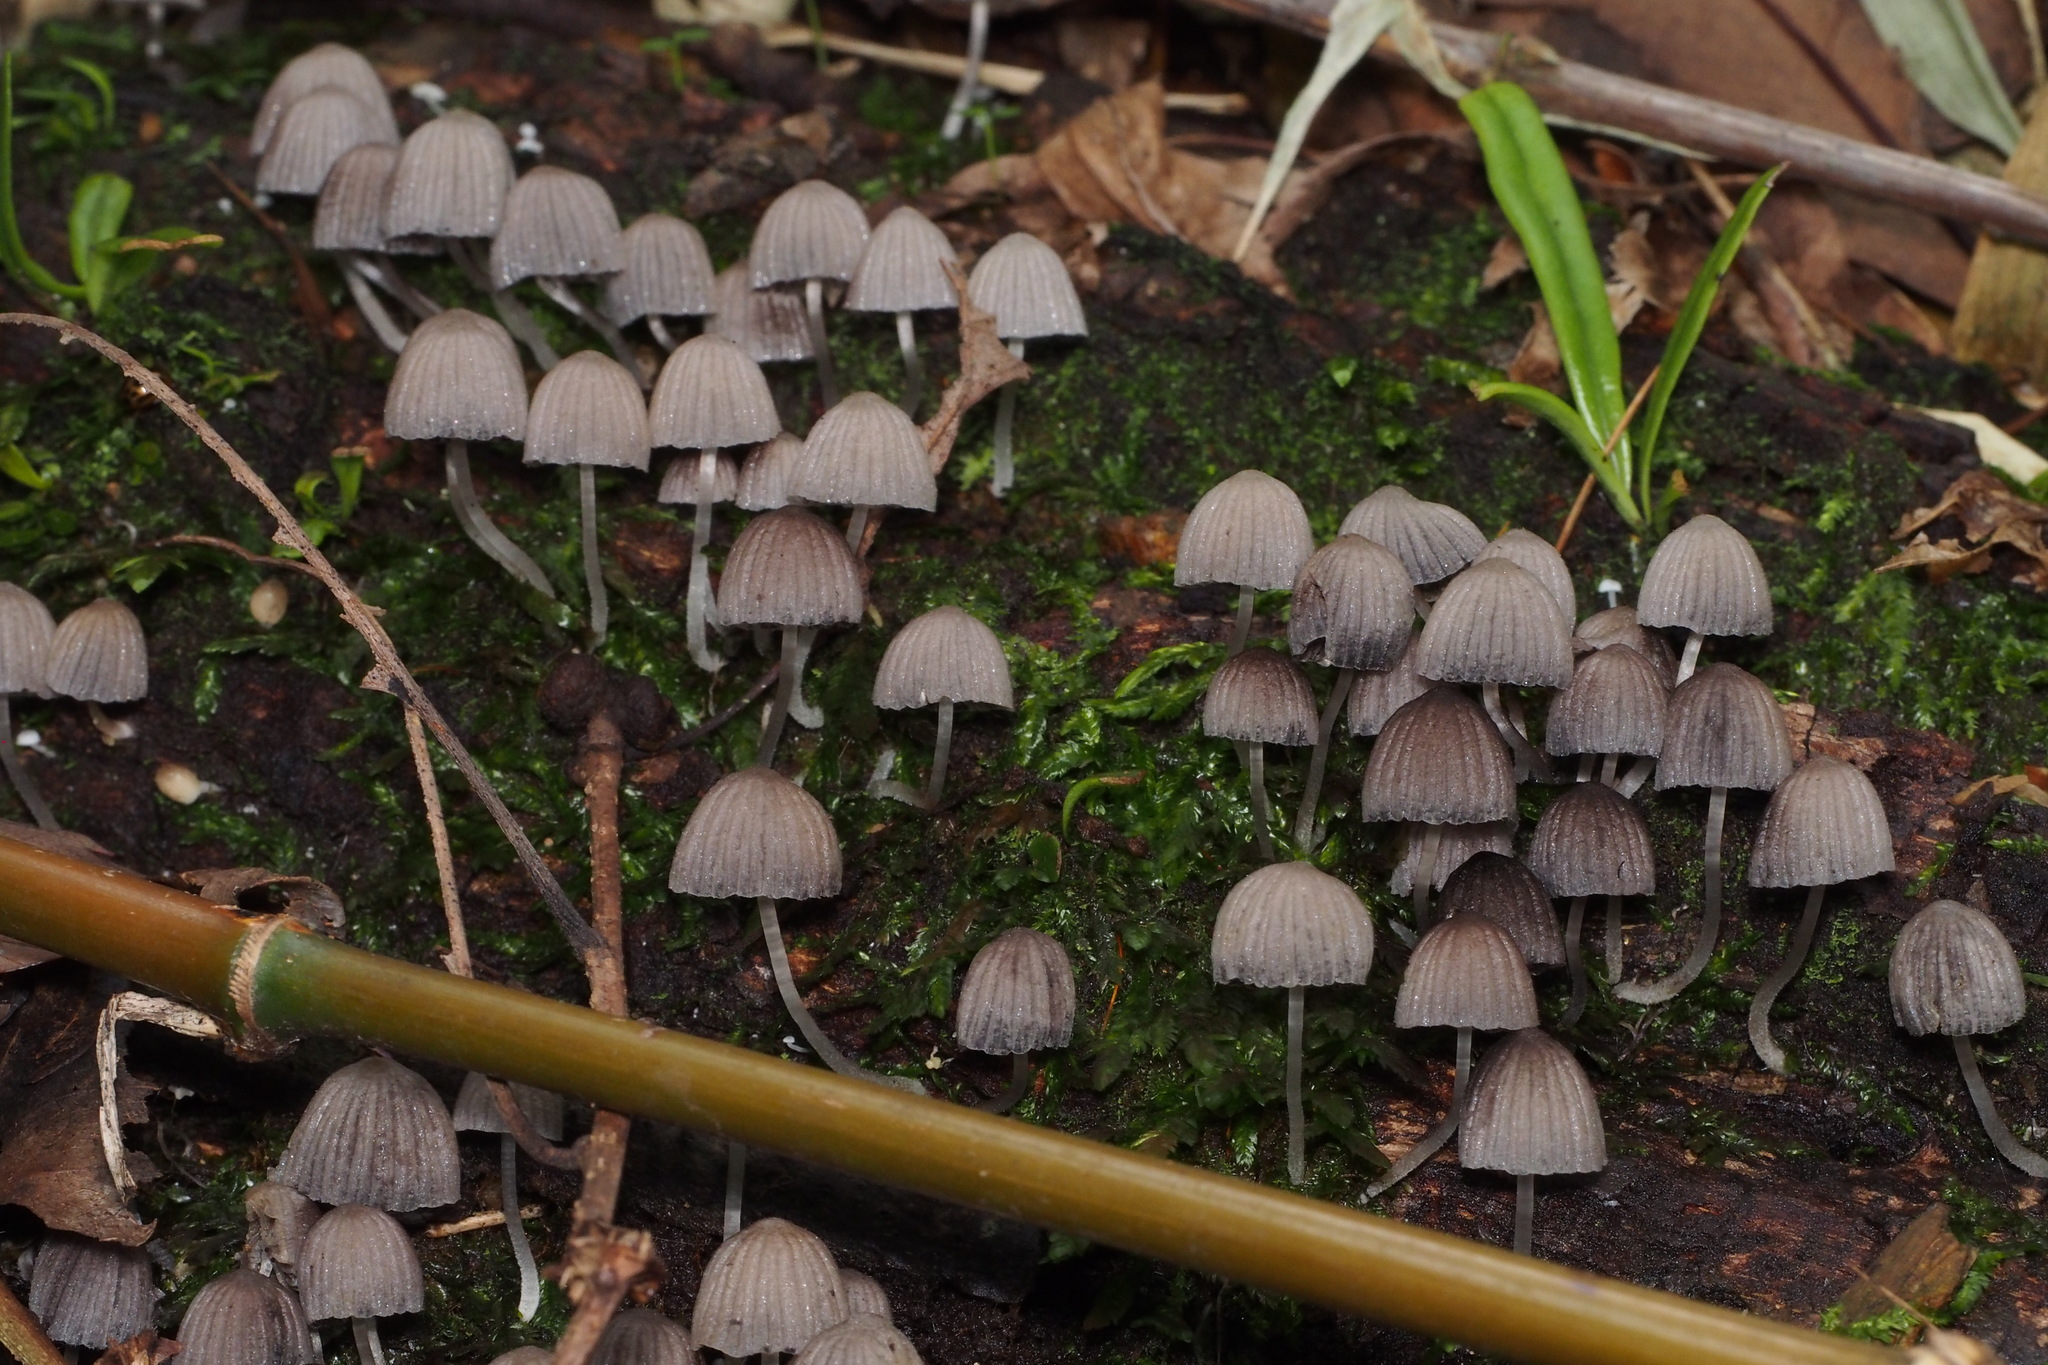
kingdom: Fungi
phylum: Basidiomycota
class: Agaricomycetes
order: Agaricales
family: Psathyrellaceae
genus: Coprinellus
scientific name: Coprinellus disseminatus
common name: Fairies' bonnets
